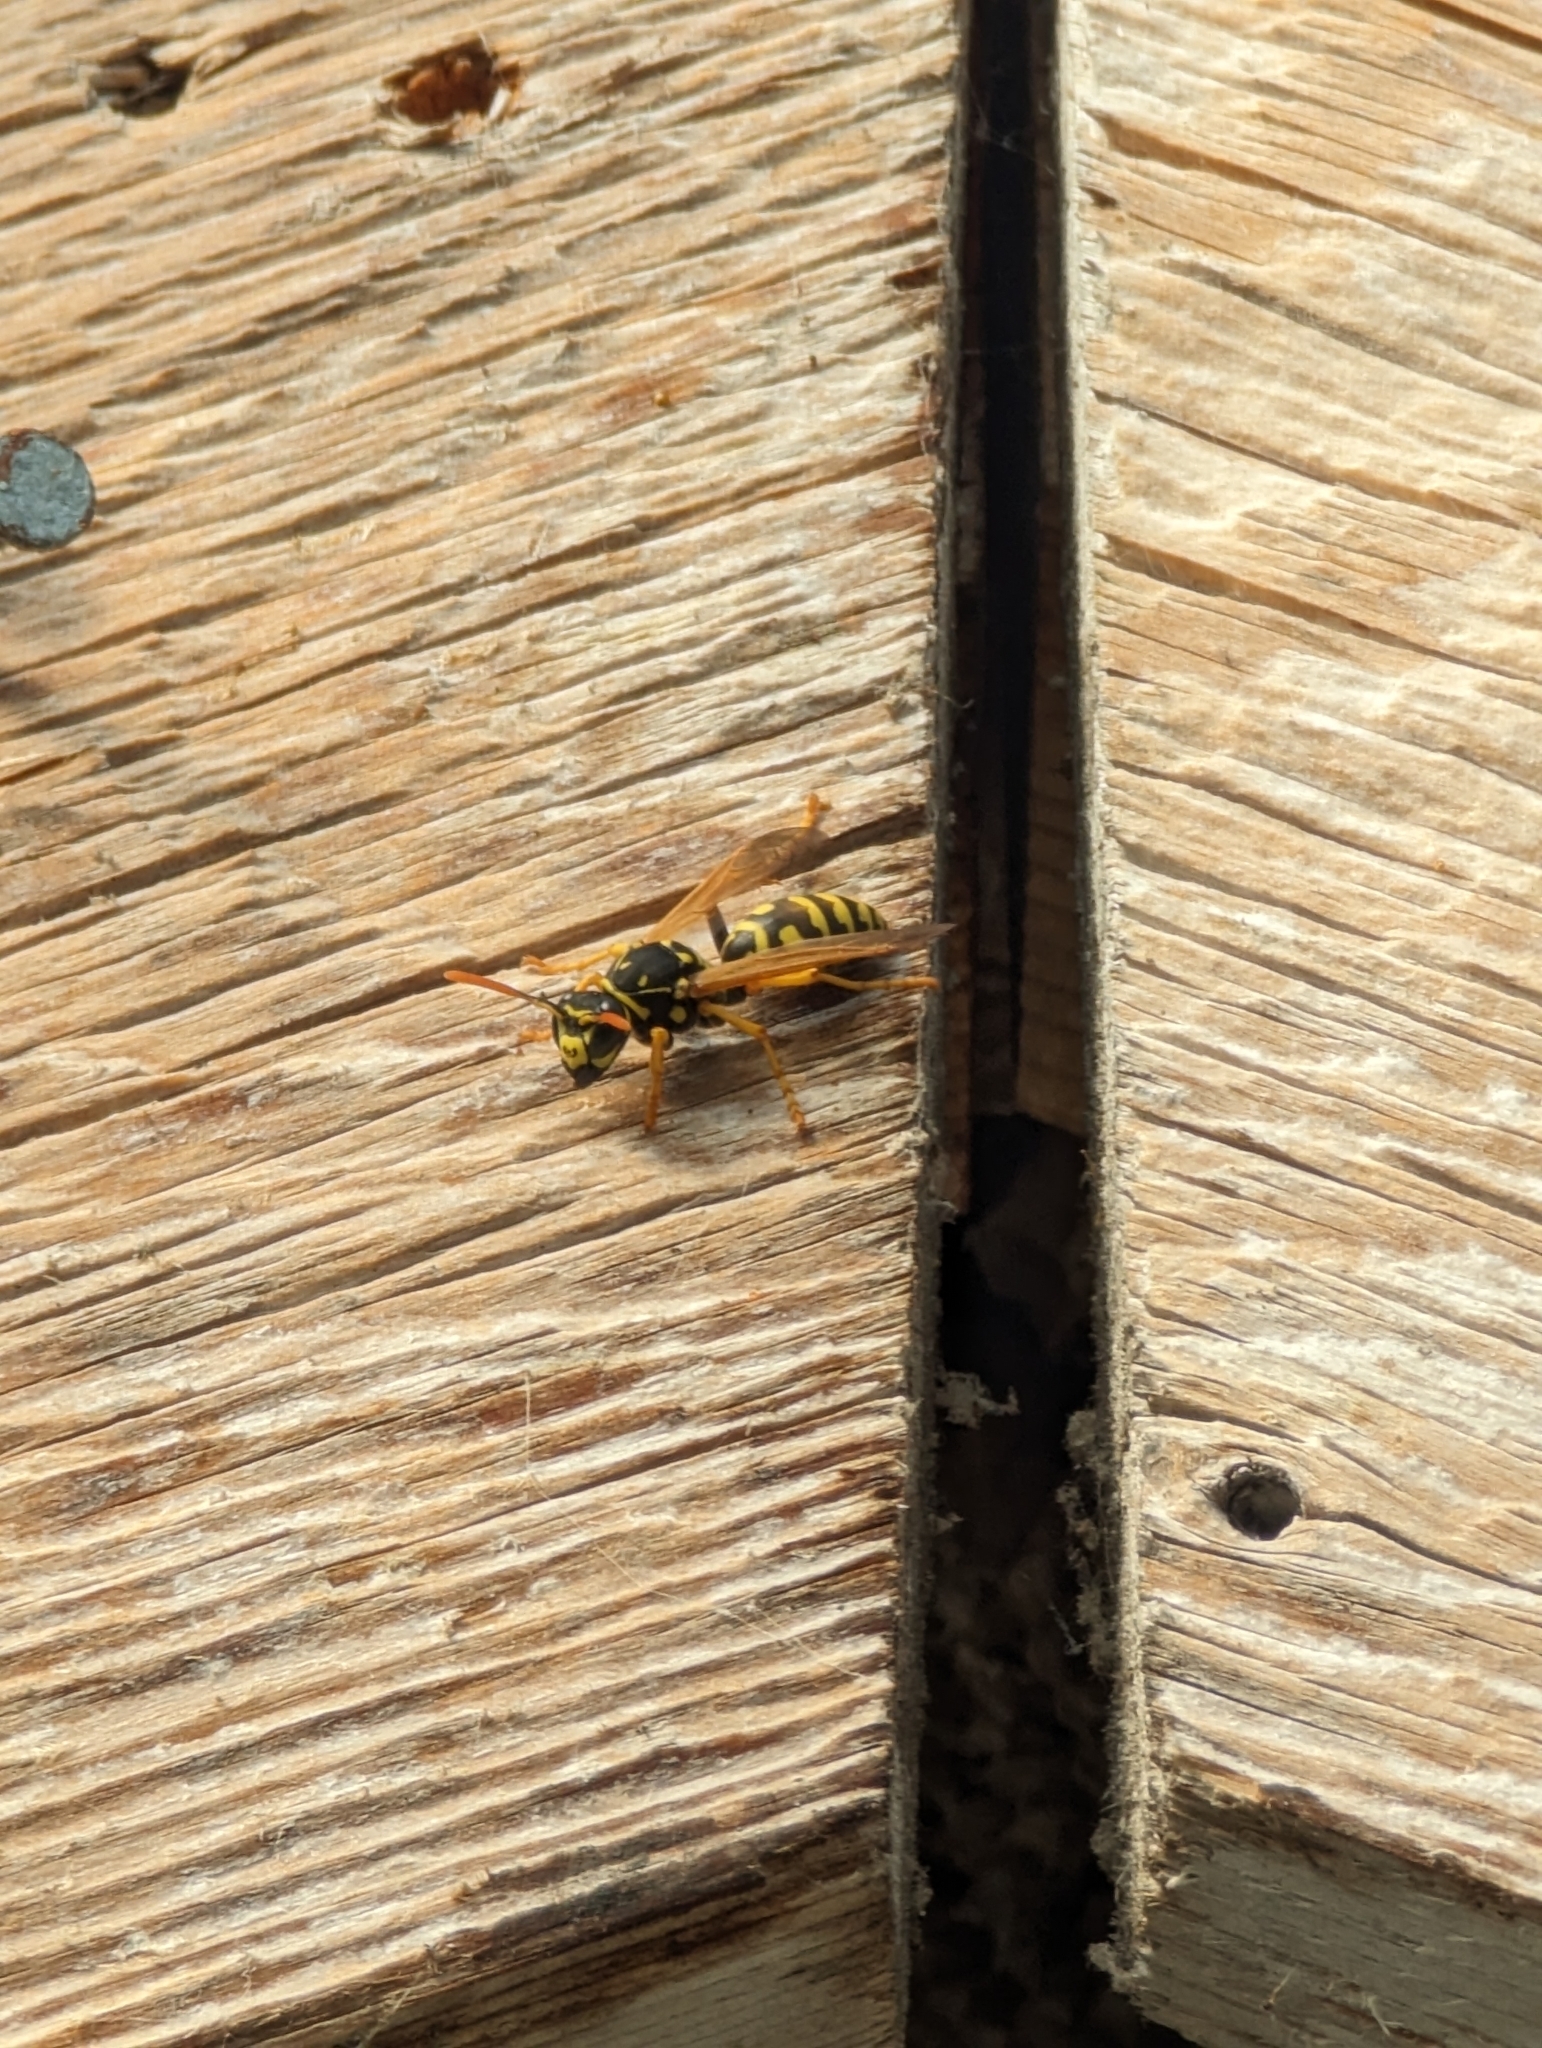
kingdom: Animalia
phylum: Arthropoda
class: Insecta
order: Hymenoptera
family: Eumenidae
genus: Polistes
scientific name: Polistes dominula
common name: Paper wasp
